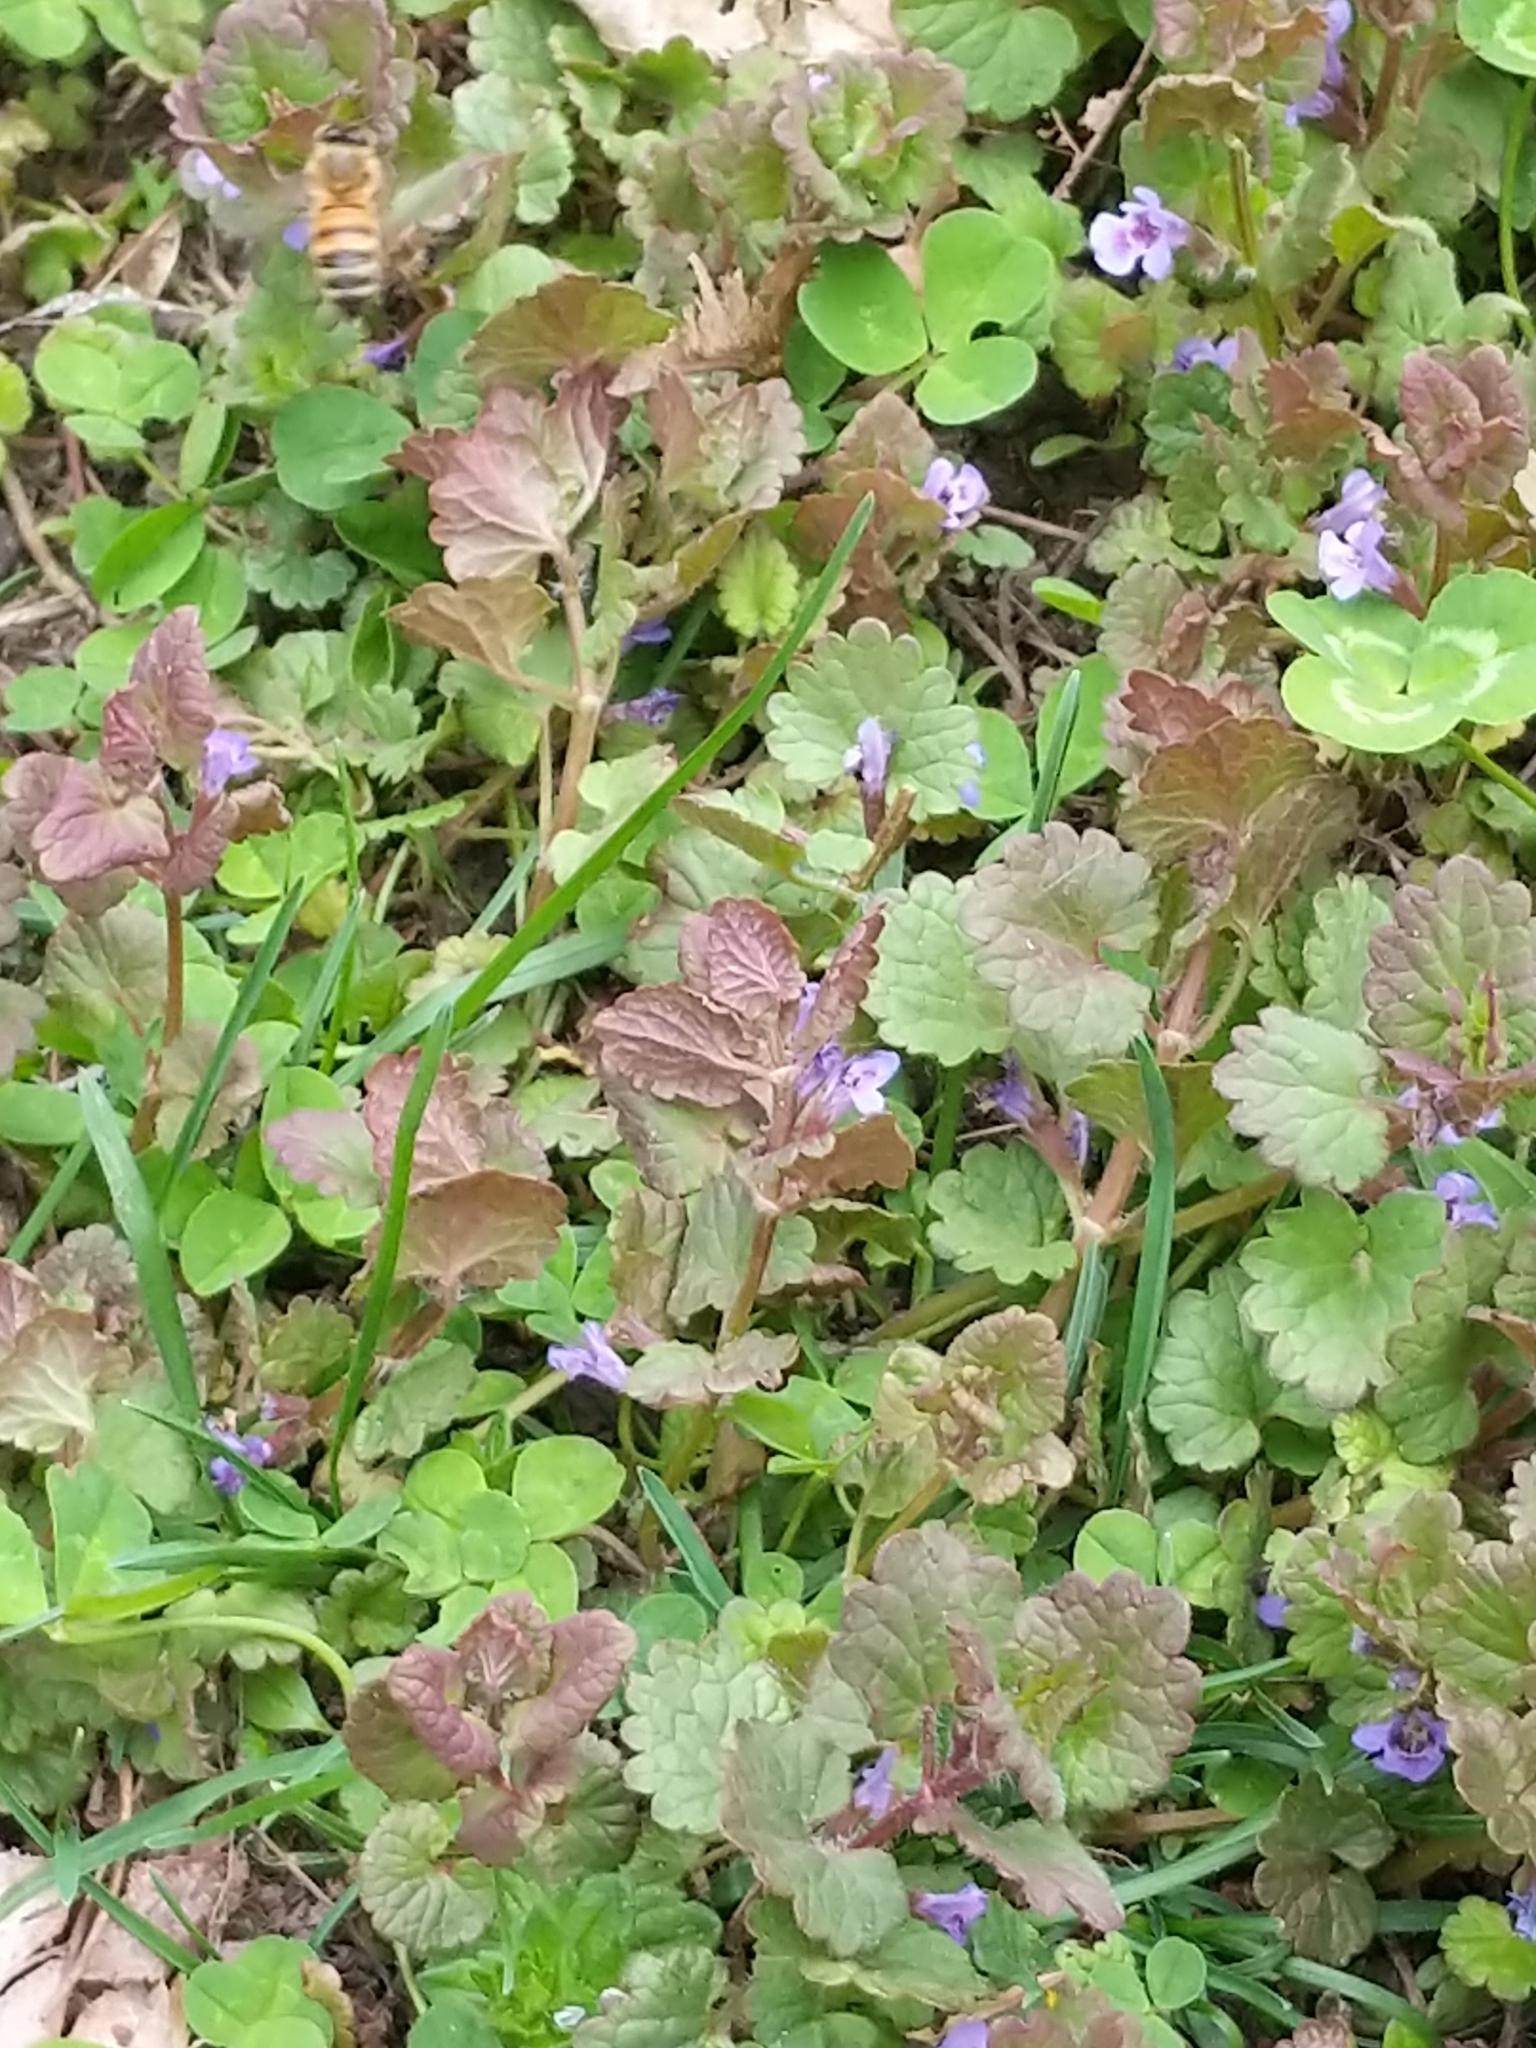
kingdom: Animalia
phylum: Arthropoda
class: Insecta
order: Hymenoptera
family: Apidae
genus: Apis
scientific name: Apis mellifera
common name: Honey bee
